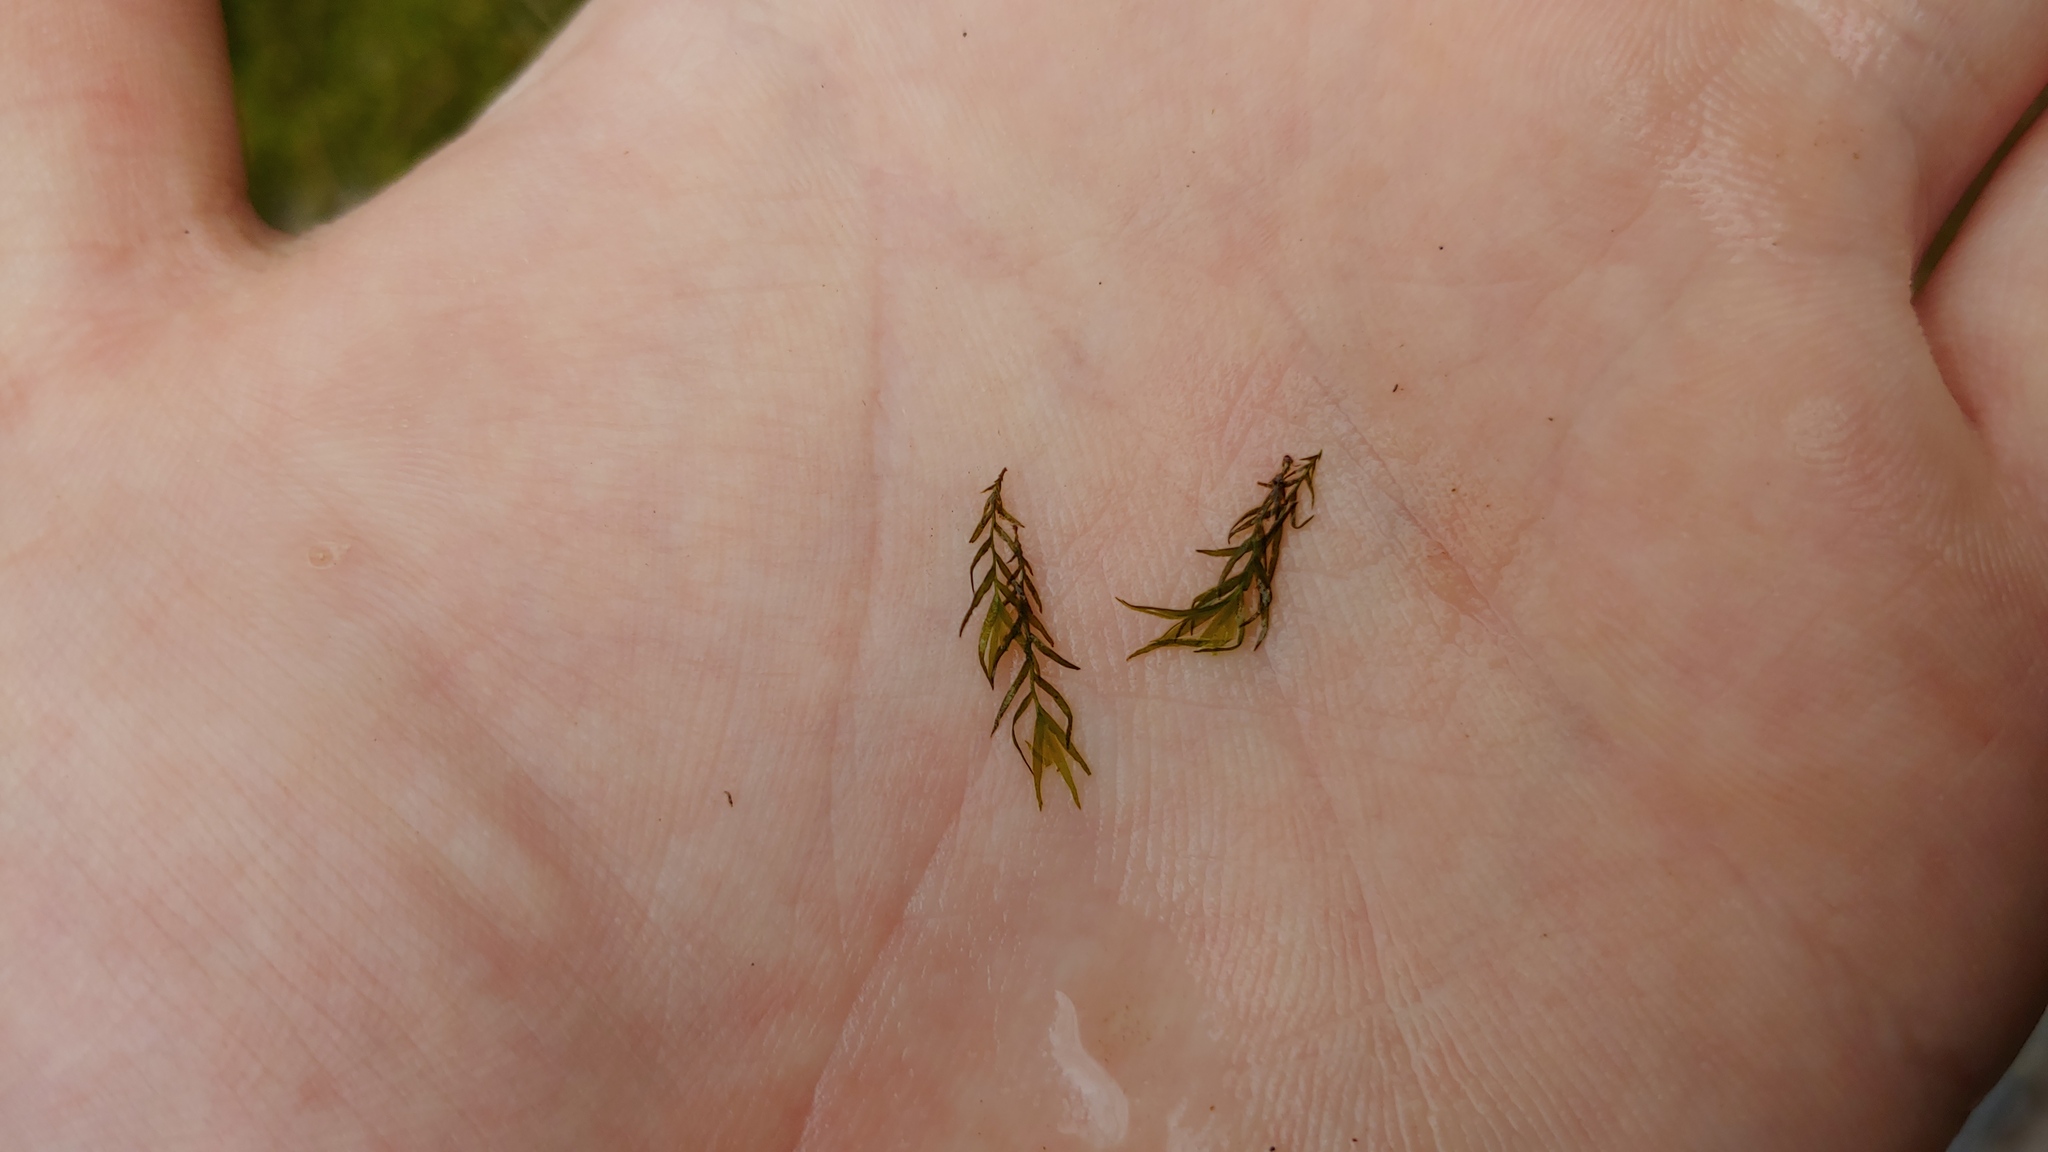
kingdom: Plantae
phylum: Bryophyta
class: Bryopsida
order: Dicranales
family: Fissidentaceae
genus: Fissidens
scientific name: Fissidens fontanus
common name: Fountain pocket-moss
